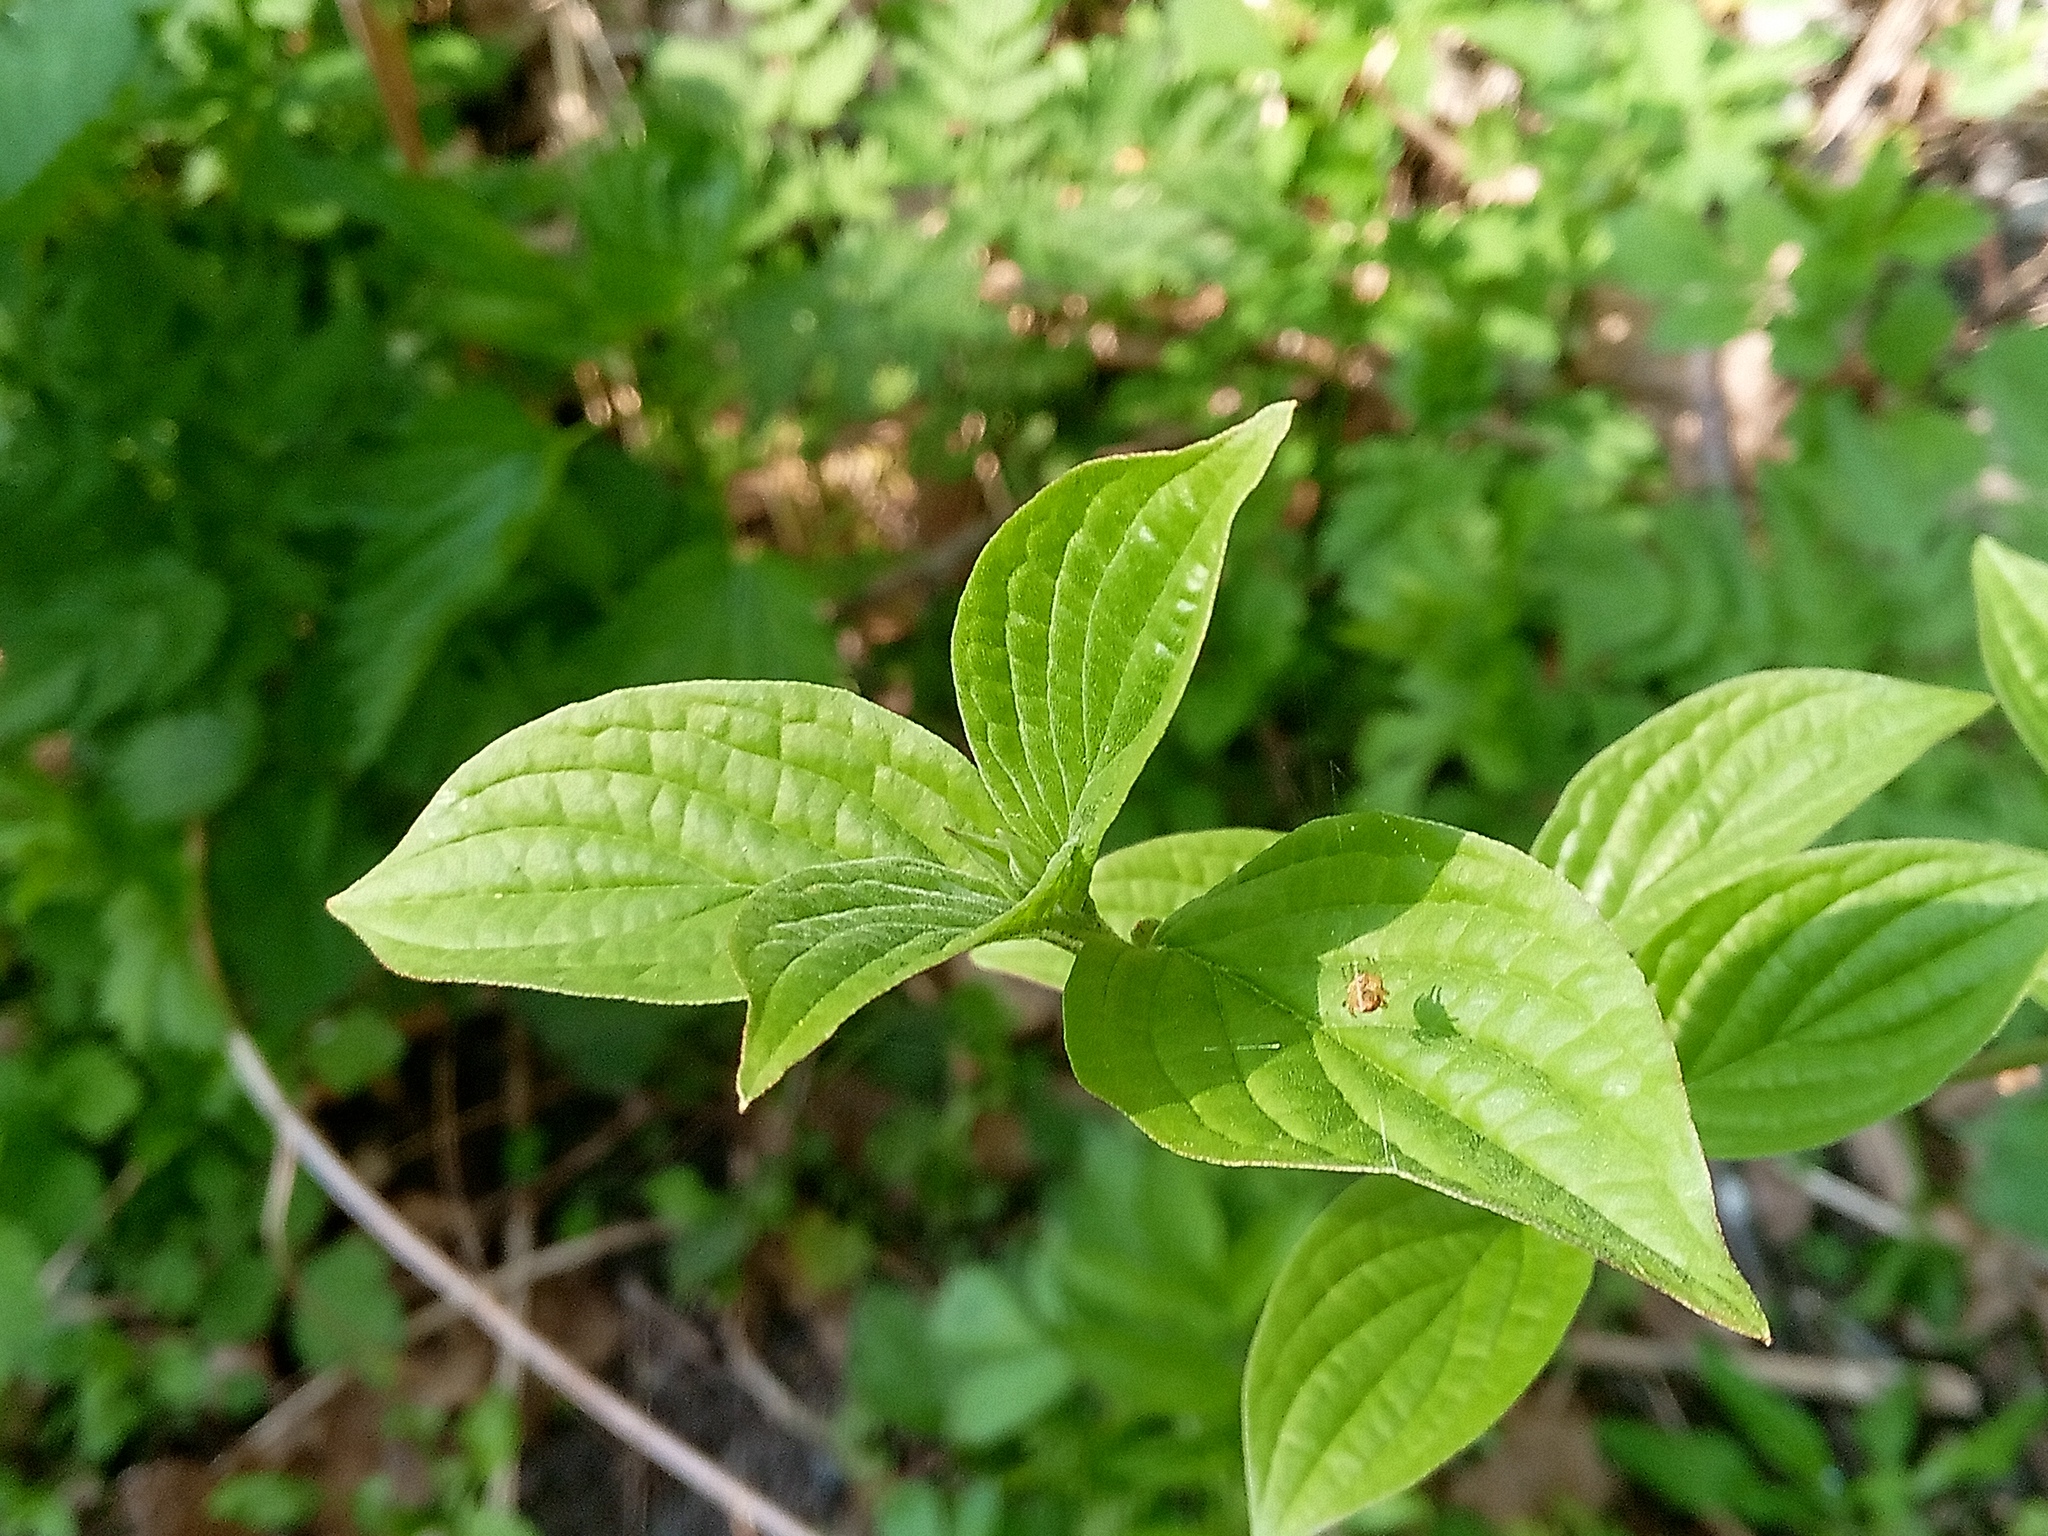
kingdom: Plantae
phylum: Tracheophyta
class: Magnoliopsida
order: Cornales
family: Cornaceae
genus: Cornus
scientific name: Cornus sanguinea
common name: Dogwood
